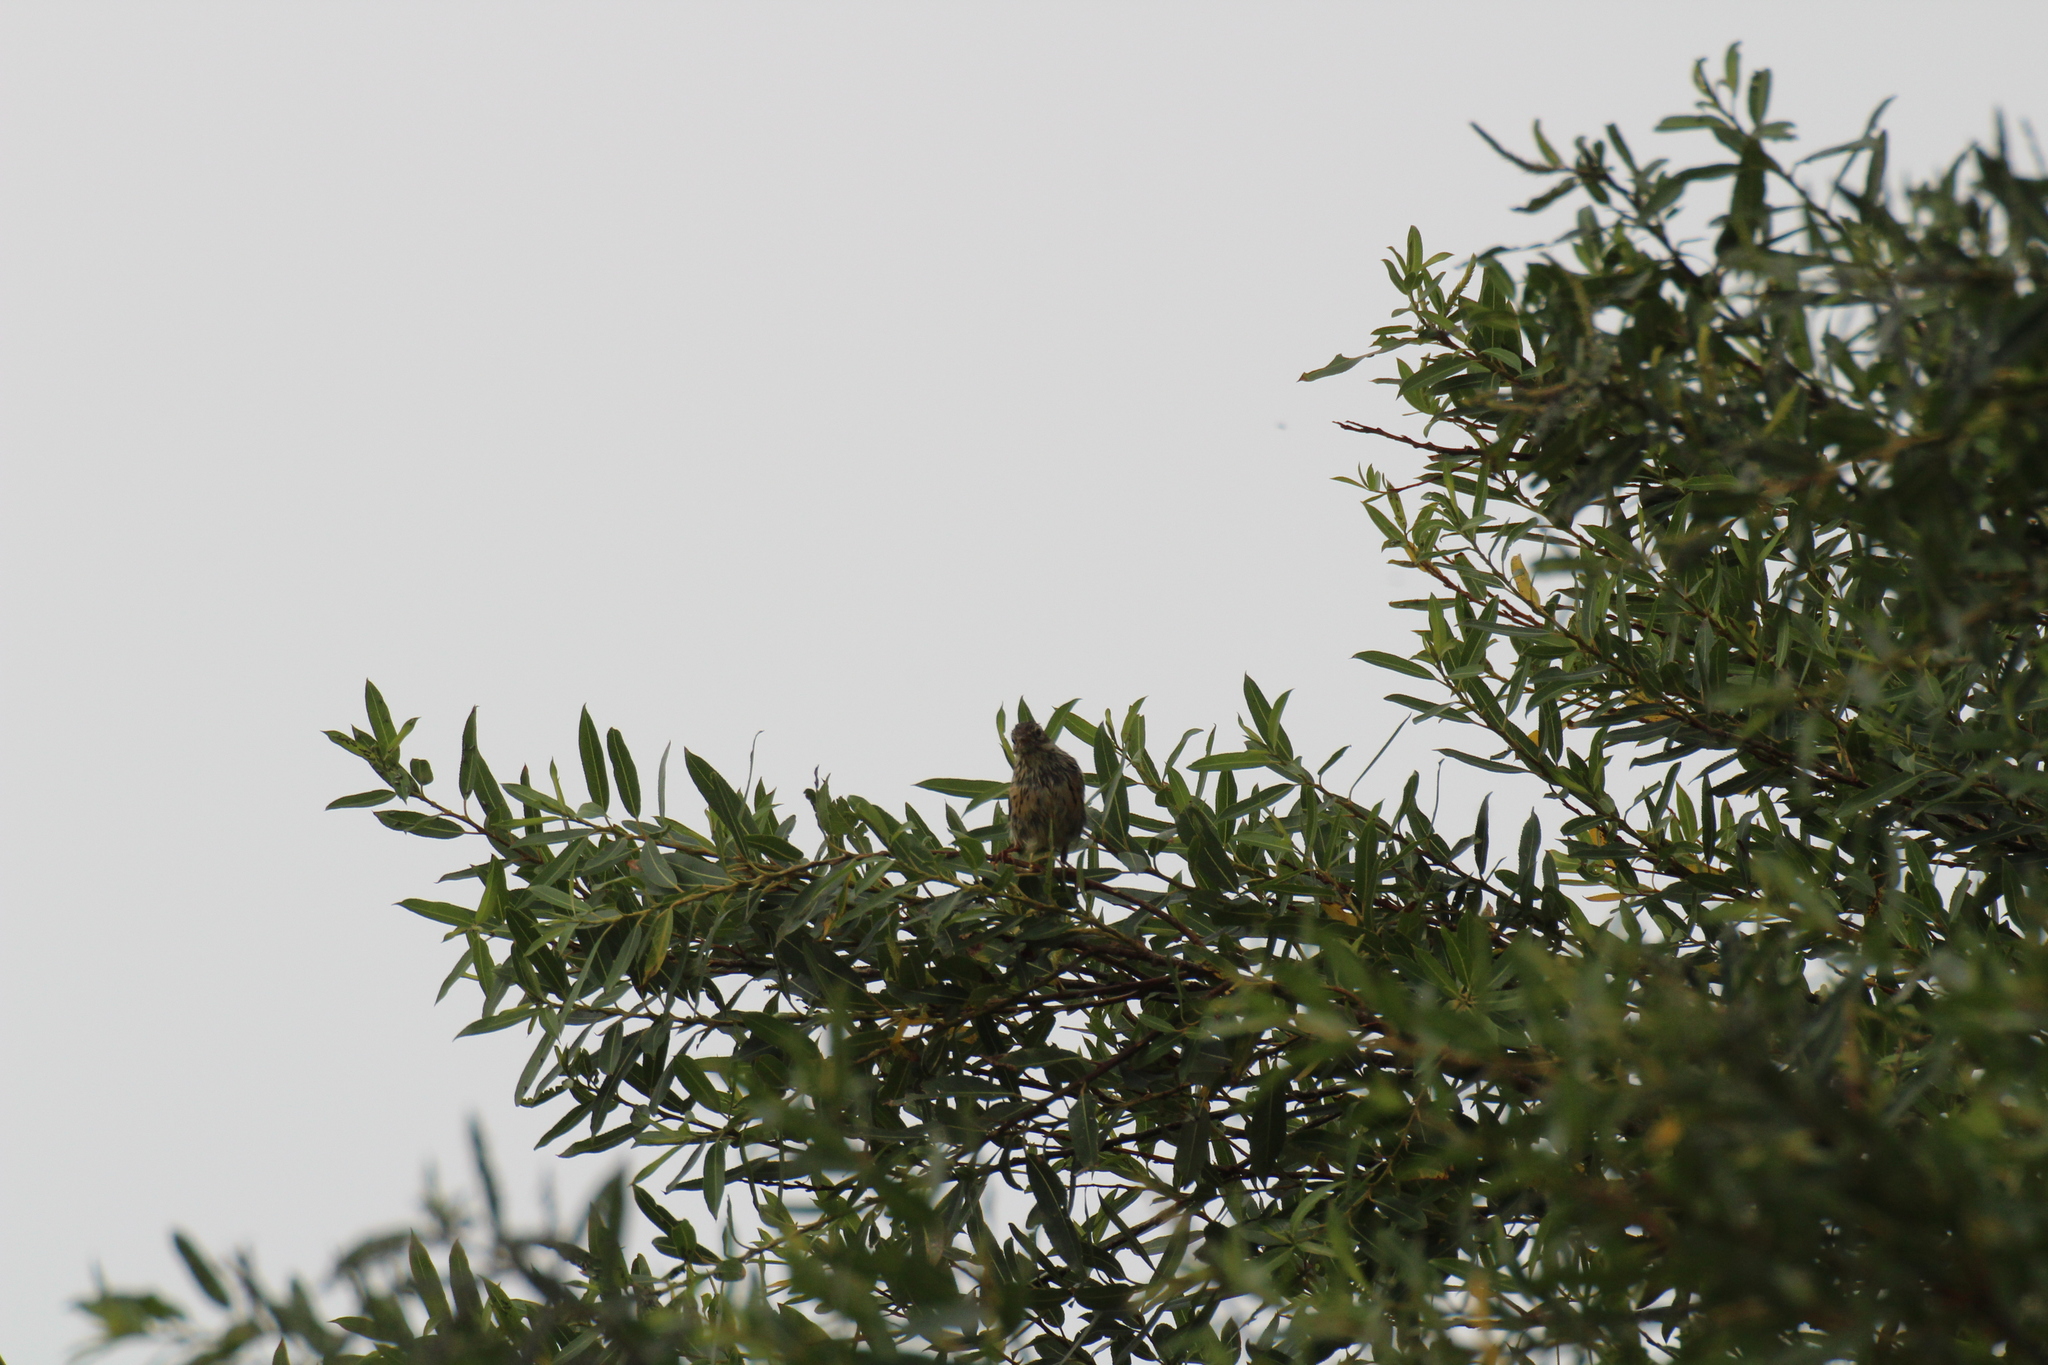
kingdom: Animalia
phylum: Chordata
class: Aves
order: Passeriformes
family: Motacillidae
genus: Anthus
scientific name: Anthus pratensis
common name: Meadow pipit
